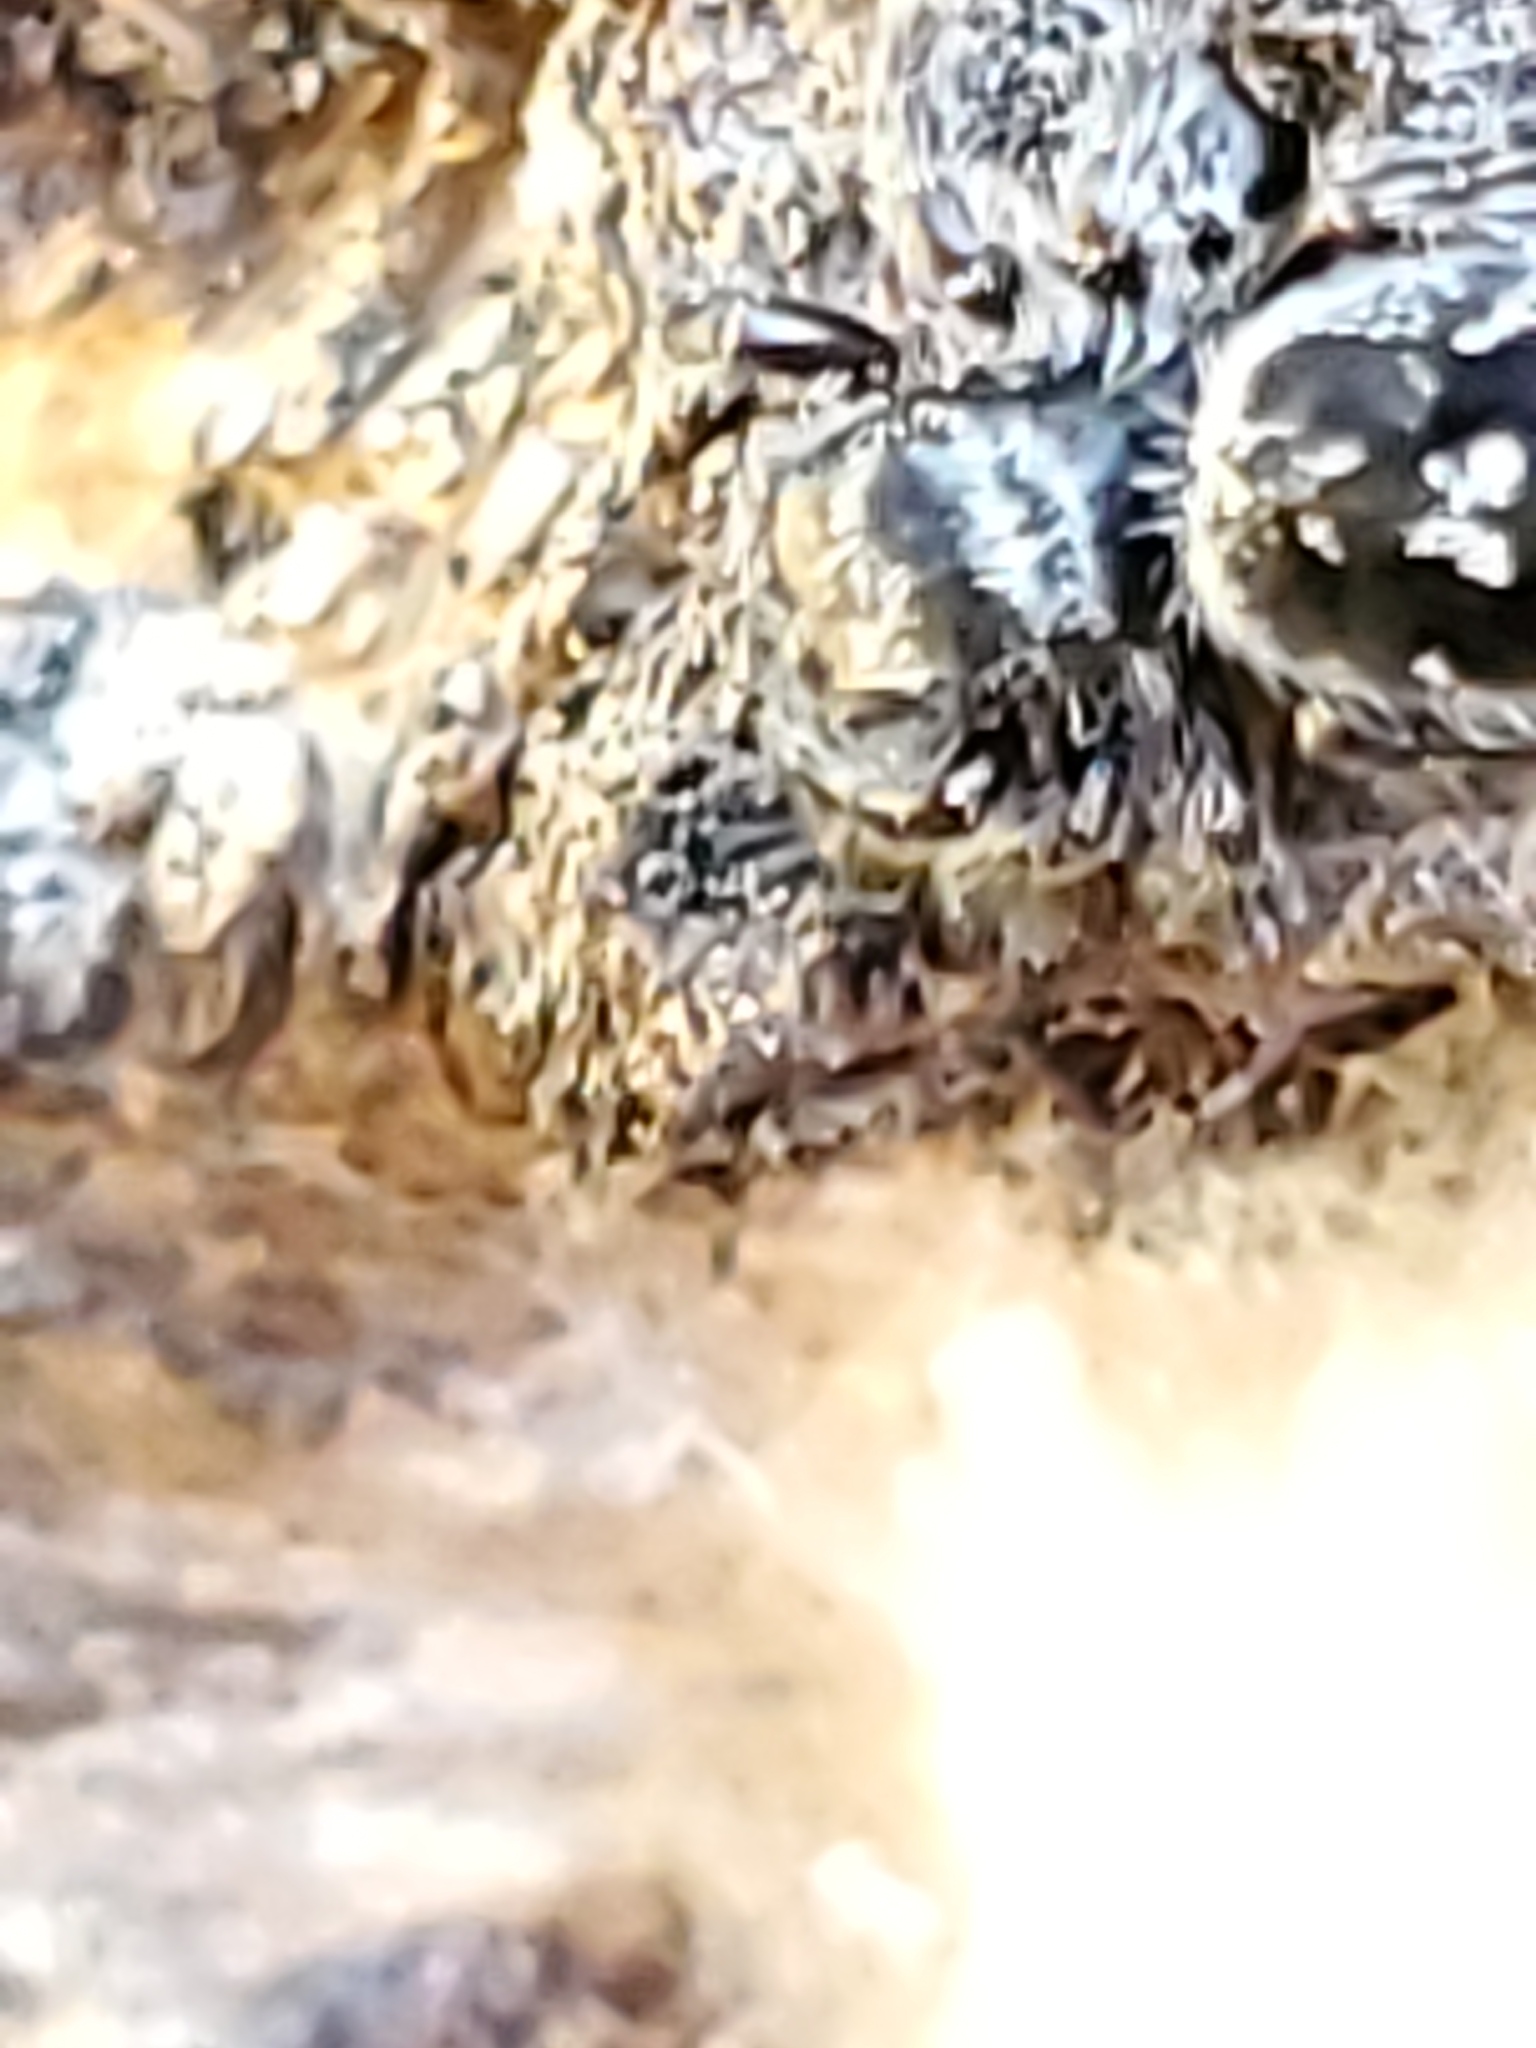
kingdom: Animalia
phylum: Arthropoda
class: Arachnida
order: Araneae
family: Salticidae
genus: Phidippus
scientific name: Phidippus borealis
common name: Boreal tufted jumping spider
